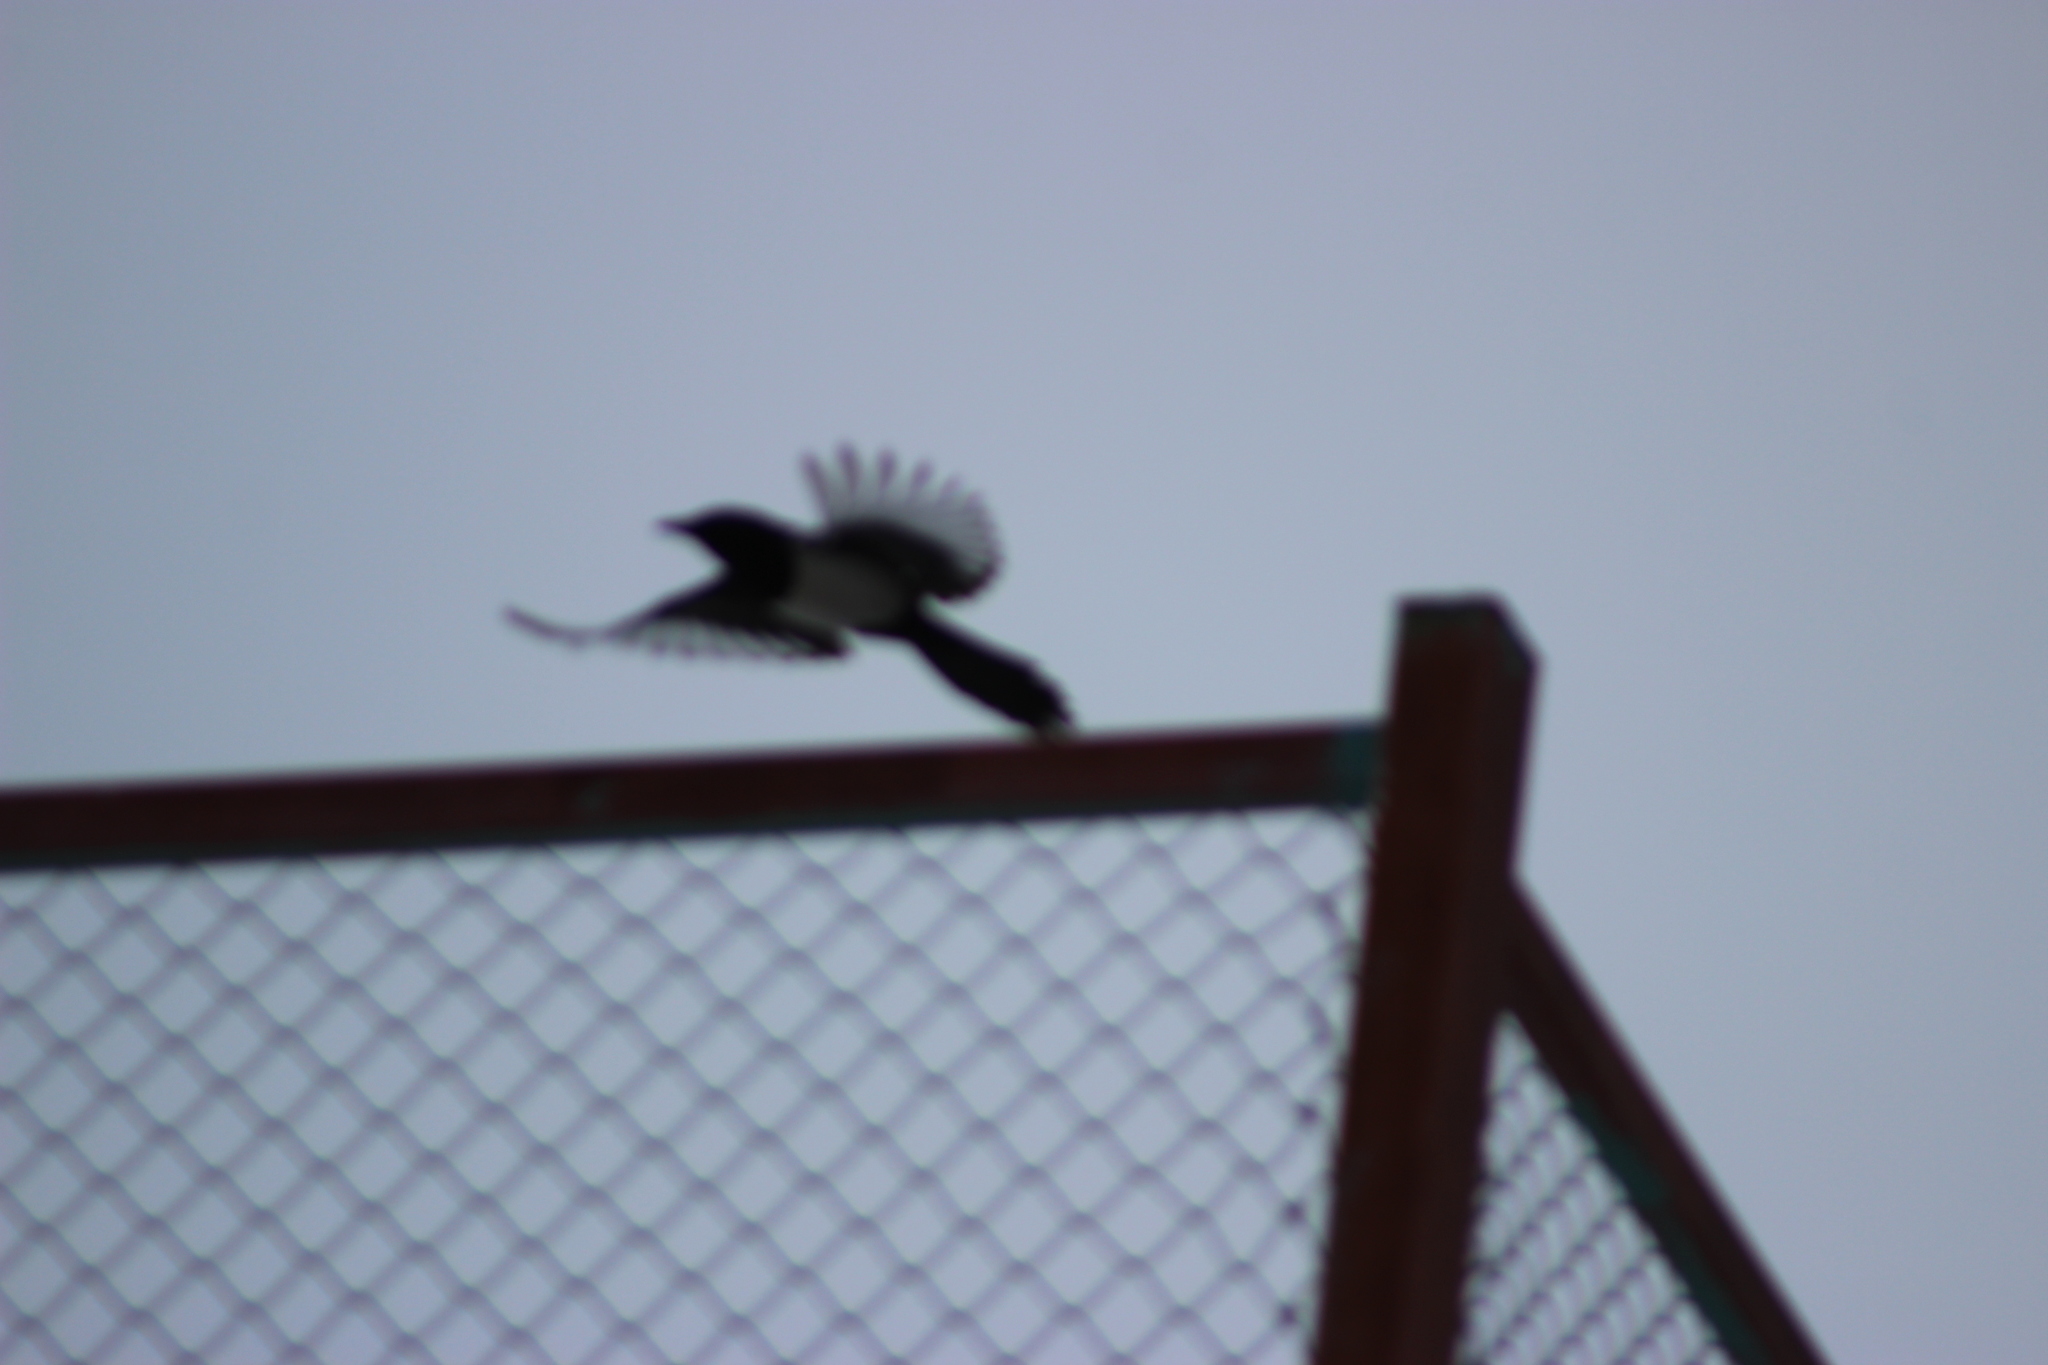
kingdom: Animalia
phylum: Chordata
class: Aves
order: Passeriformes
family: Corvidae
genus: Pica
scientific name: Pica pica
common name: Eurasian magpie
